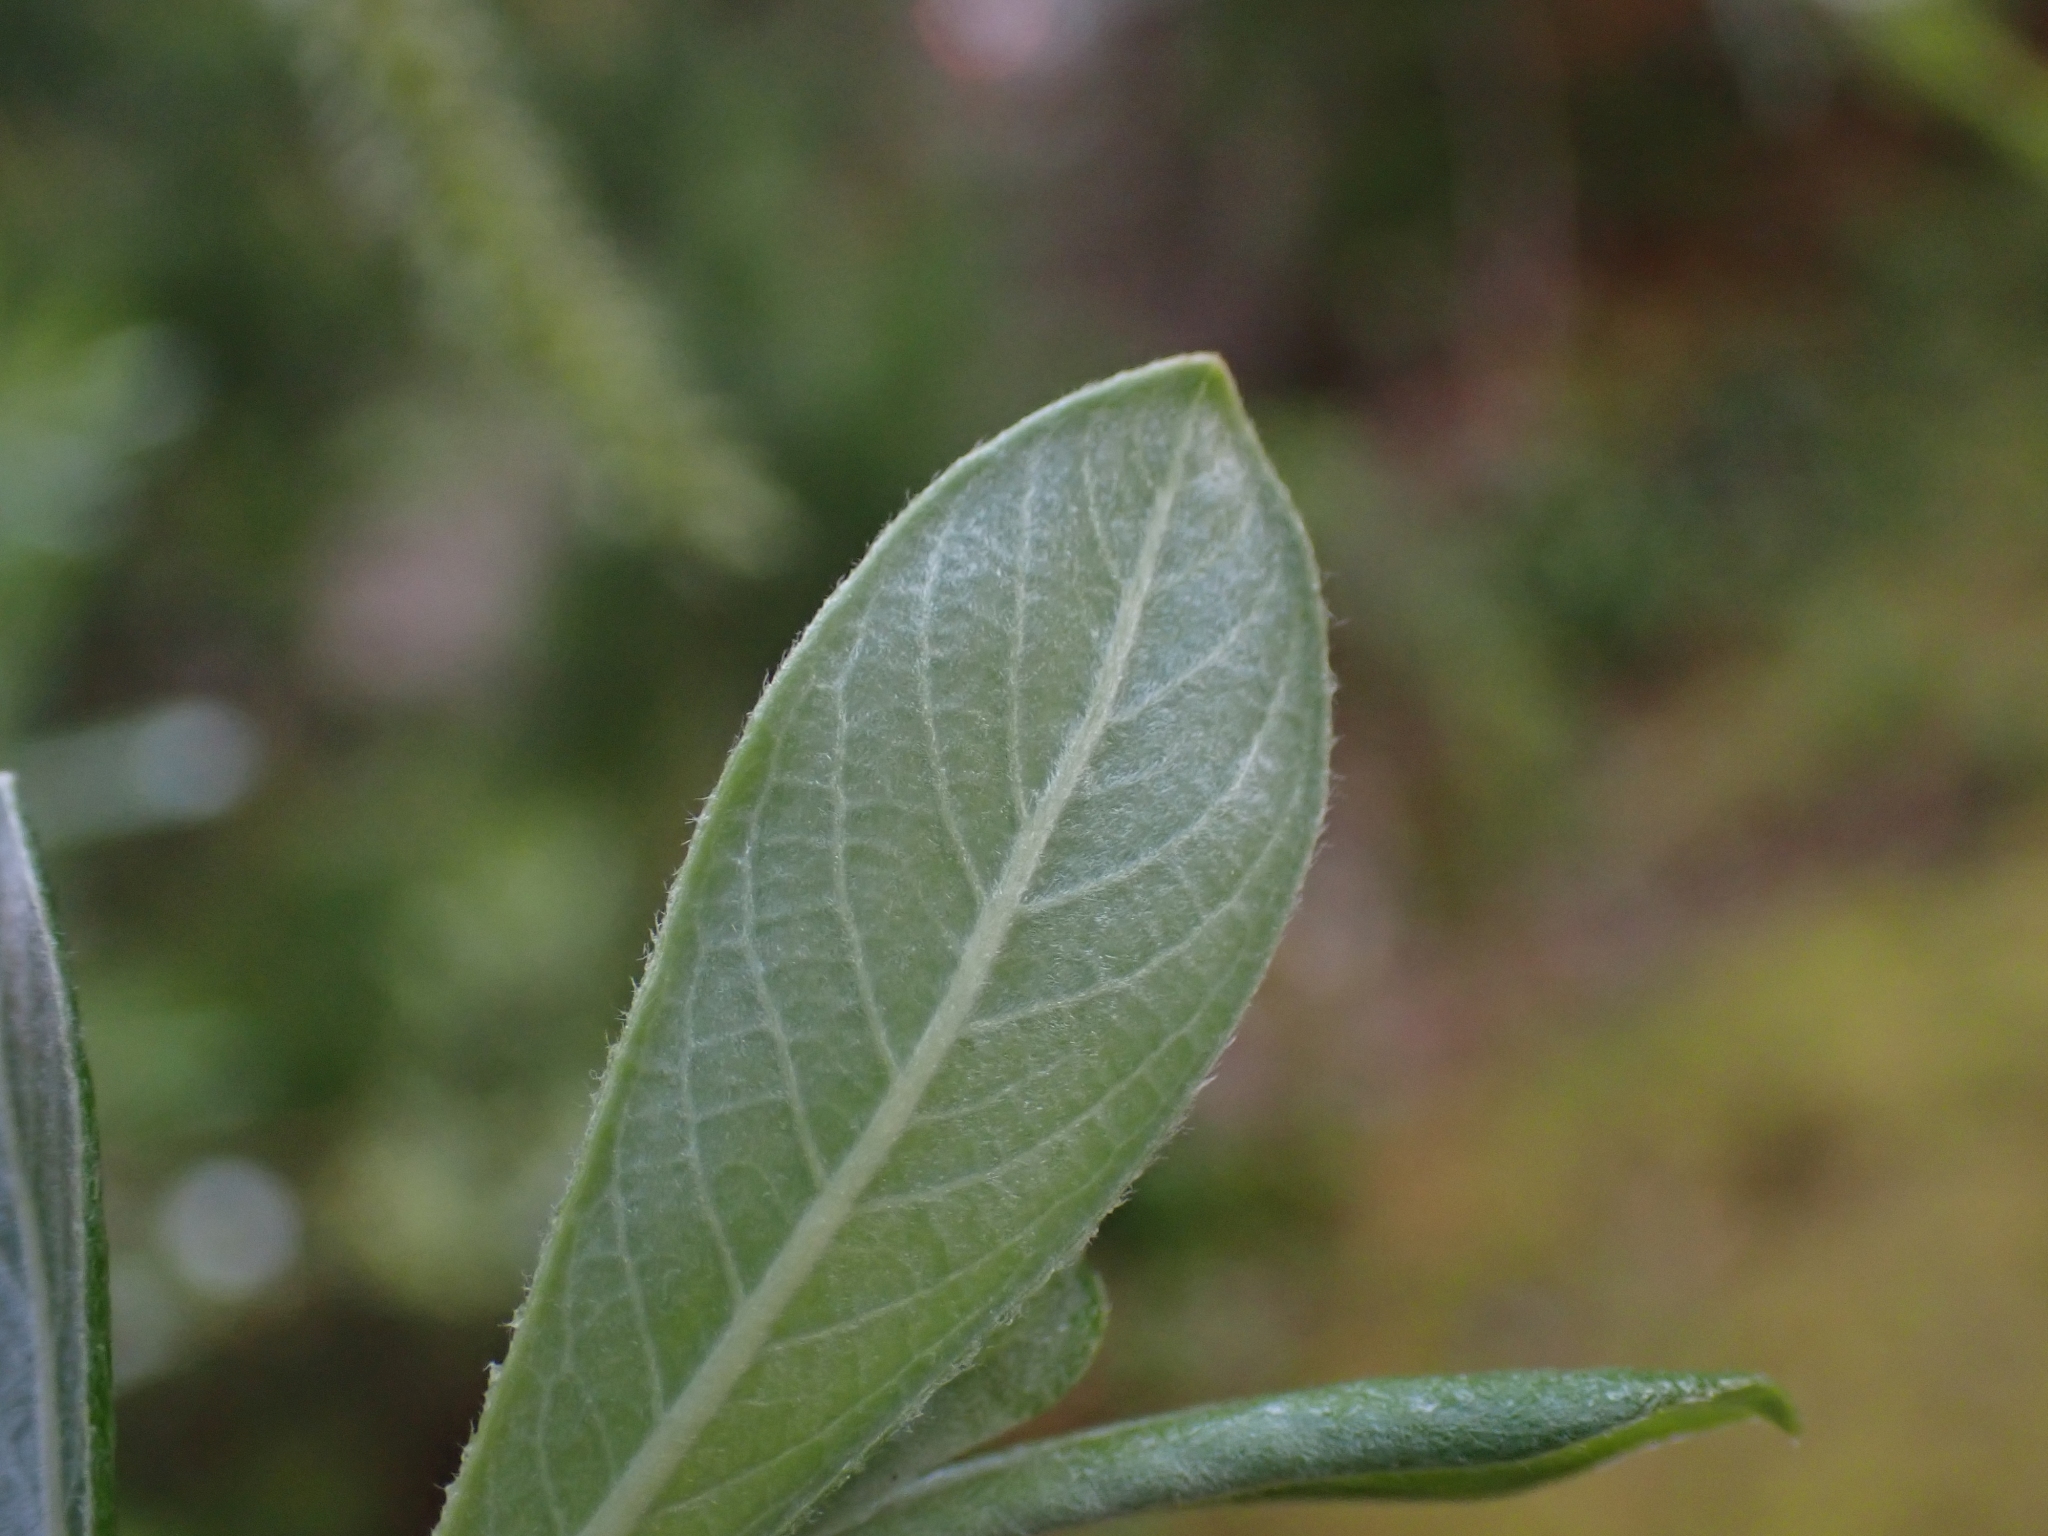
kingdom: Plantae
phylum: Tracheophyta
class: Magnoliopsida
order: Malpighiales
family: Salicaceae
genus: Salix
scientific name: Salix sitchensis
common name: Sitka willow
